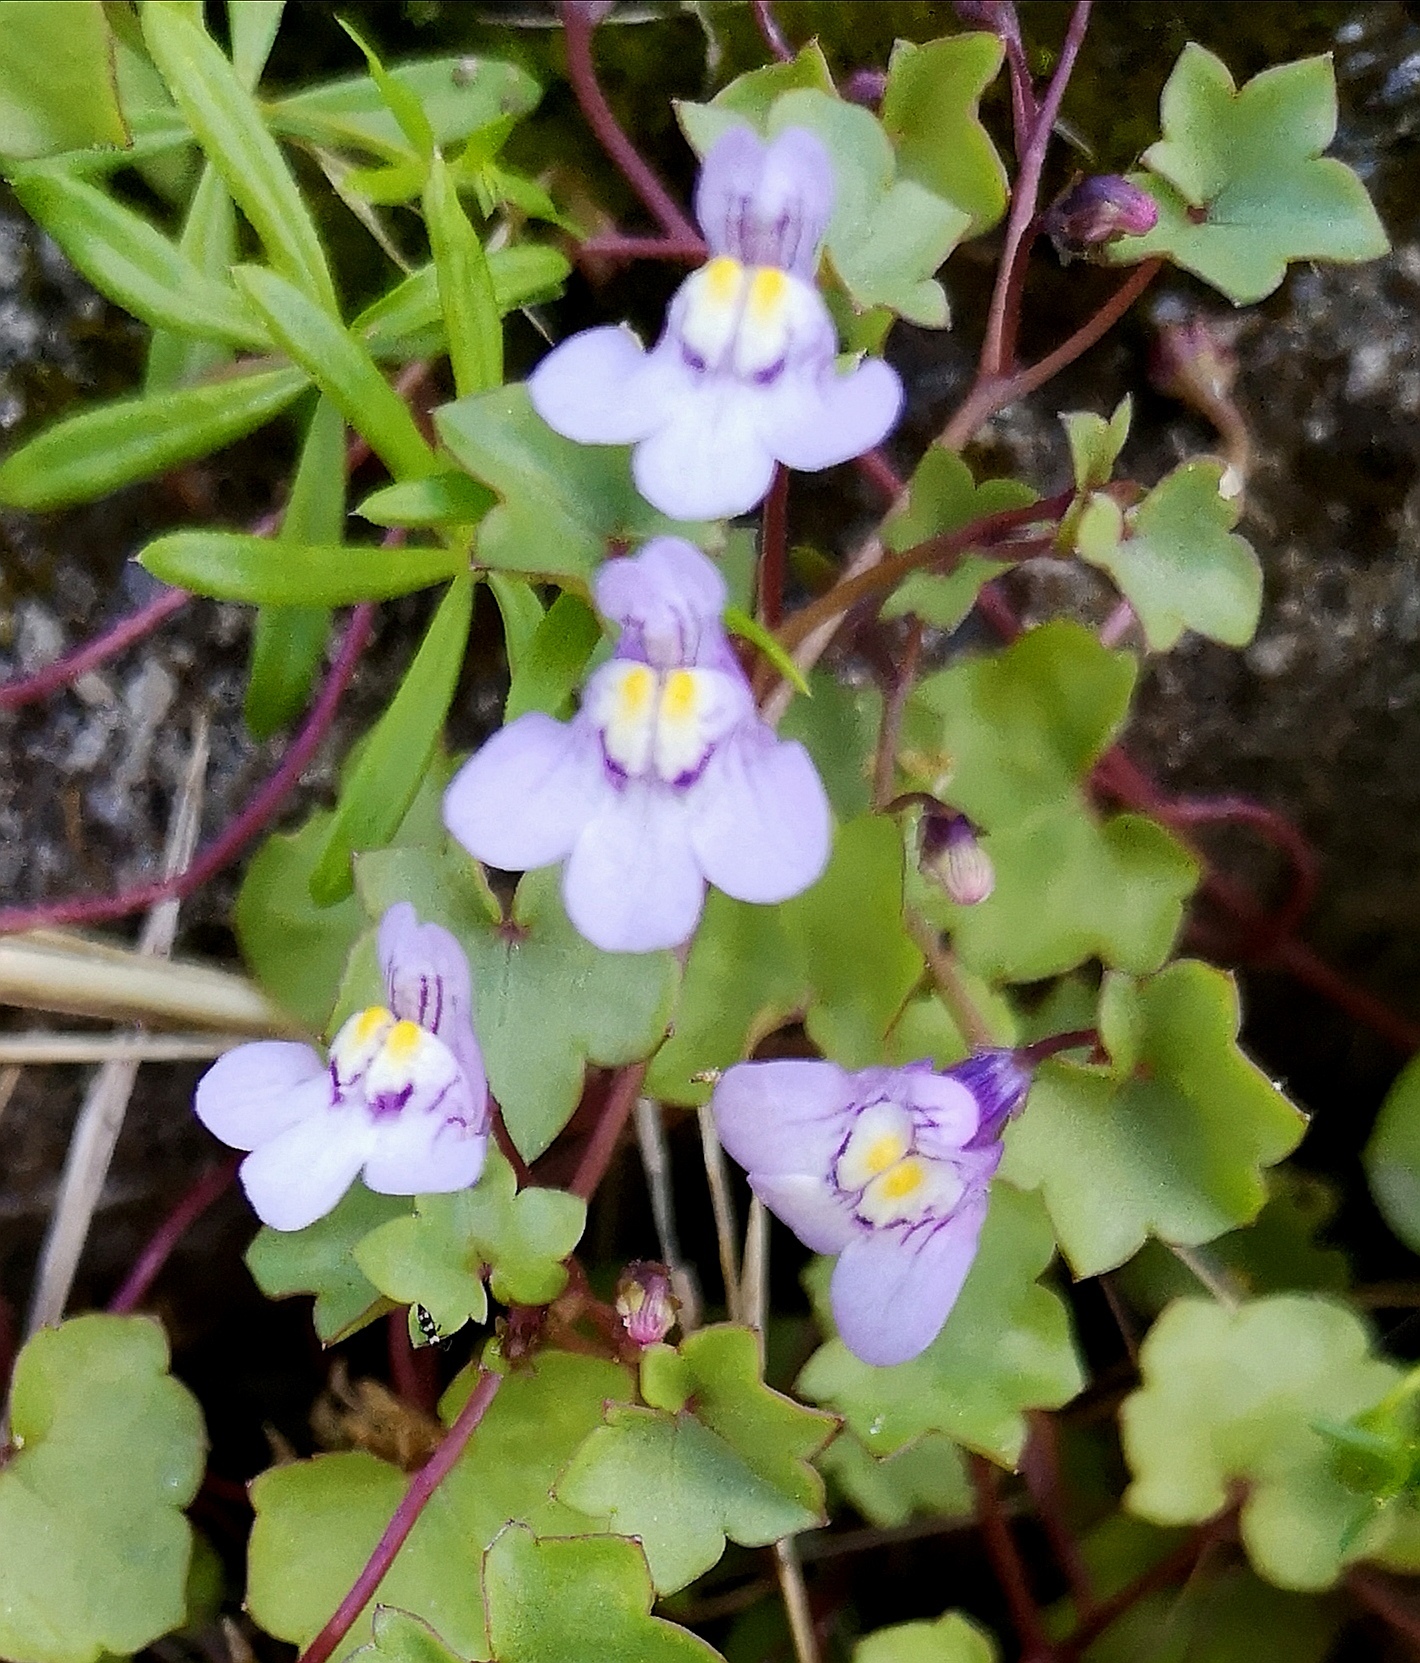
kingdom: Plantae
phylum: Tracheophyta
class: Magnoliopsida
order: Lamiales
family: Plantaginaceae
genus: Cymbalaria
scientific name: Cymbalaria muralis
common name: Ivy-leaved toadflax
